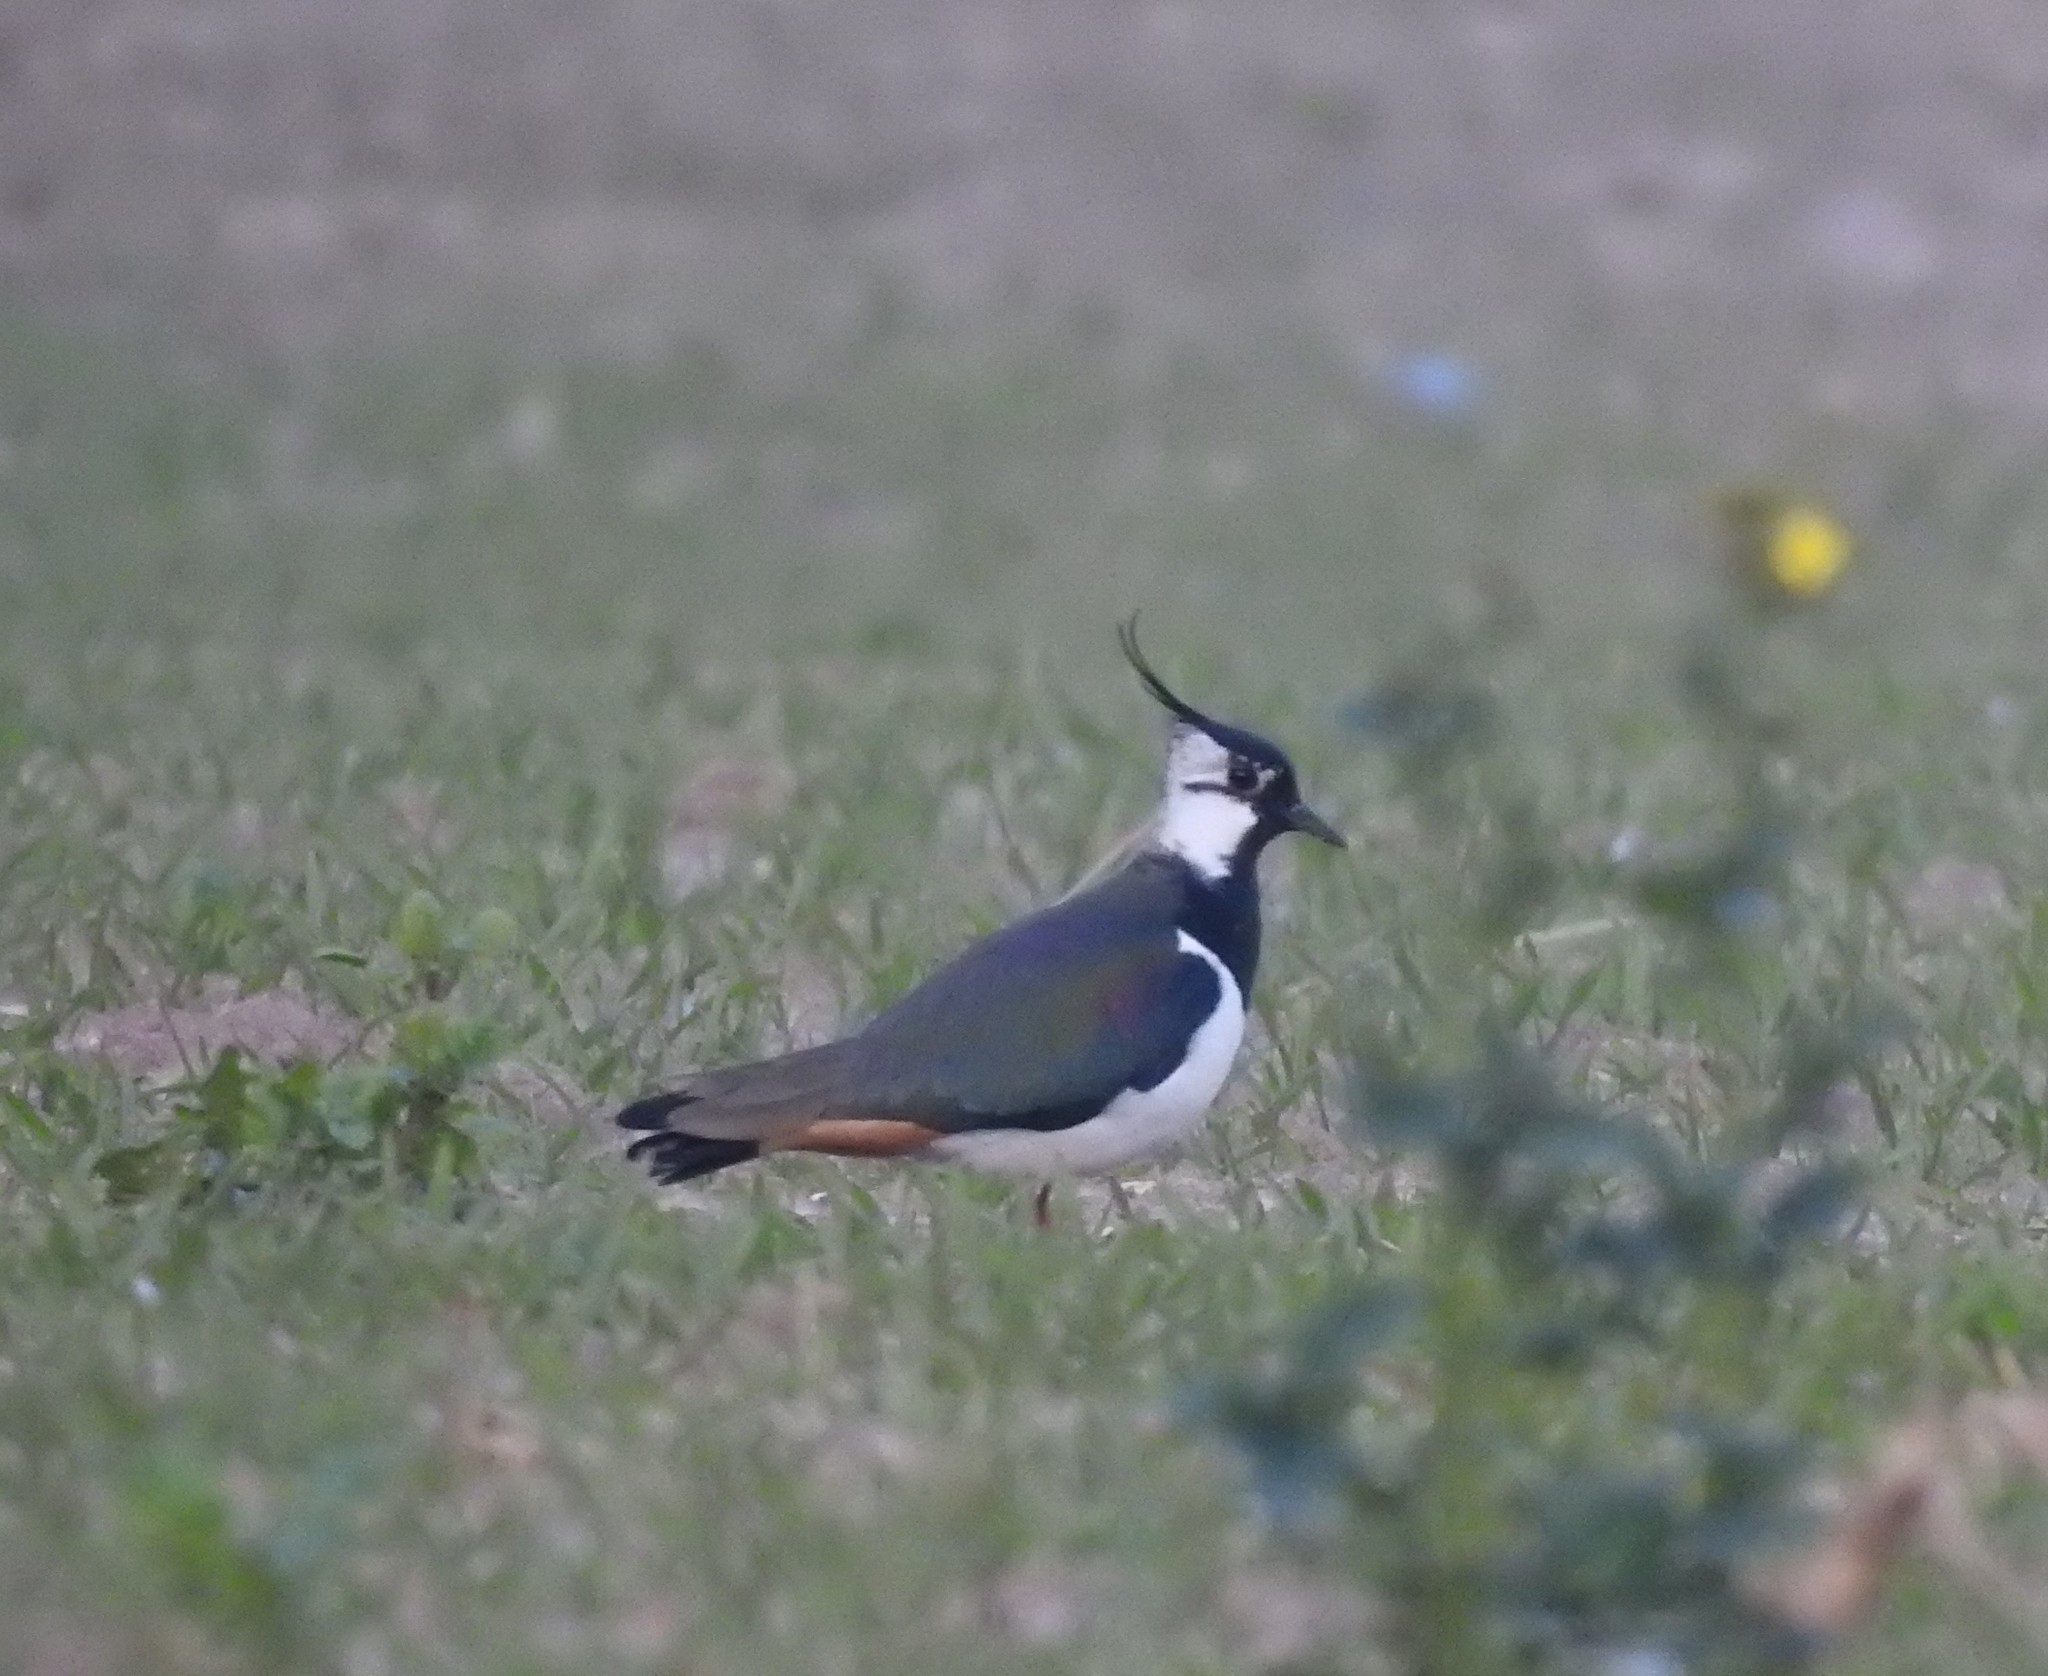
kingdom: Animalia
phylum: Chordata
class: Aves
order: Charadriiformes
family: Charadriidae
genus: Vanellus
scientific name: Vanellus vanellus
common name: Northern lapwing
